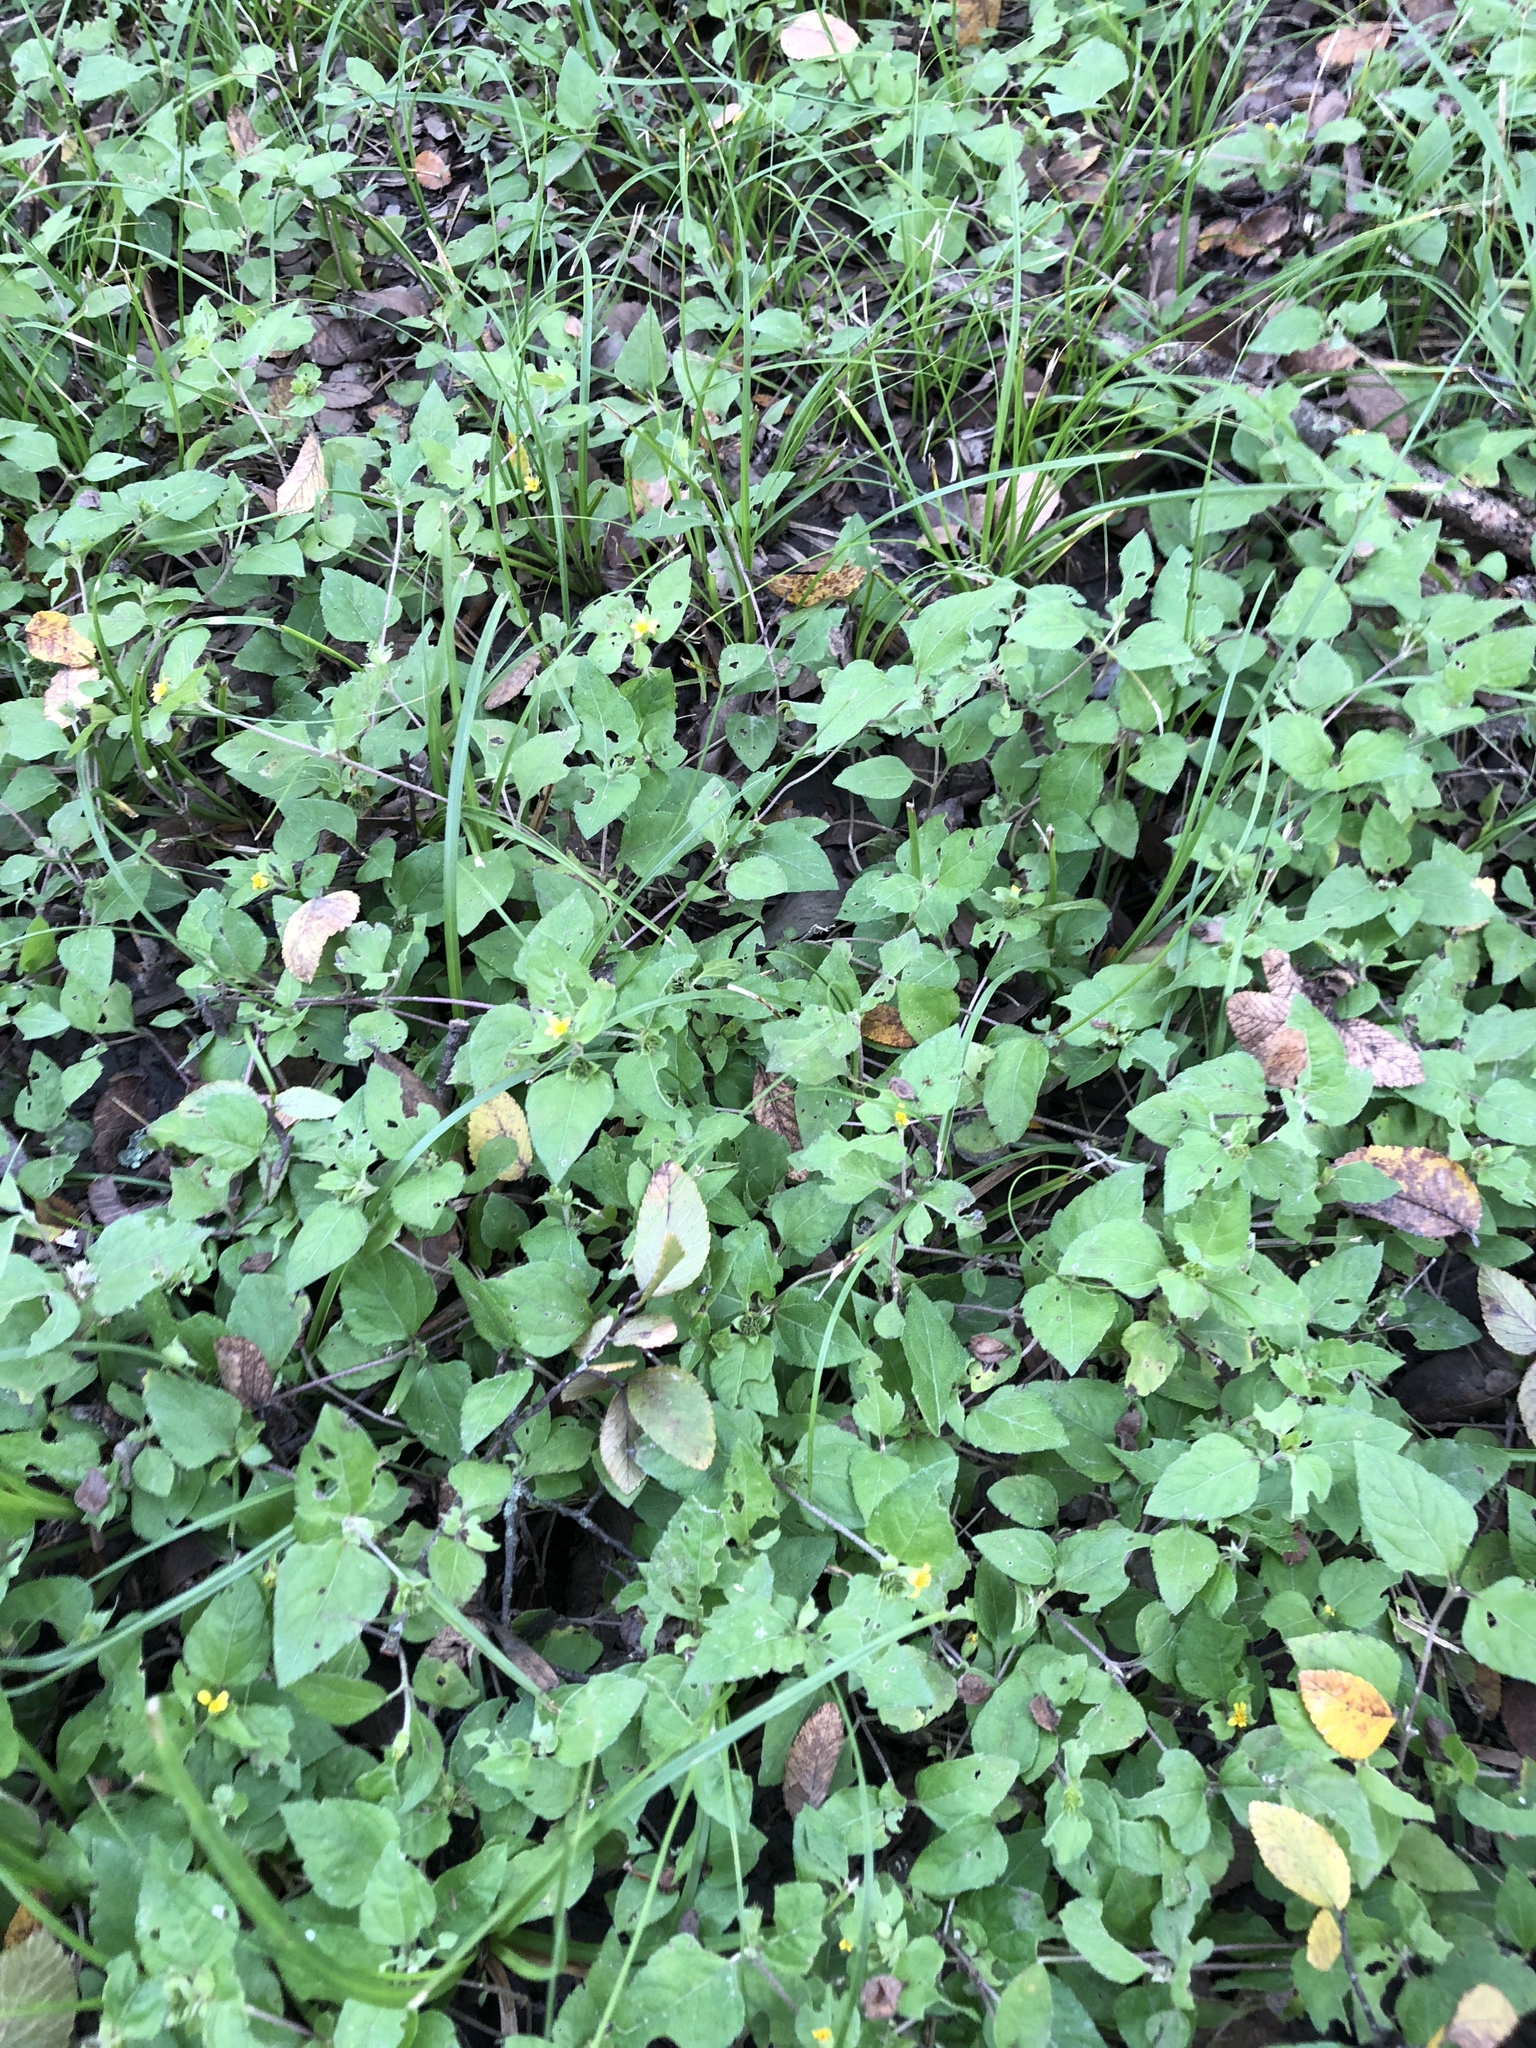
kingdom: Plantae
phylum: Tracheophyta
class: Magnoliopsida
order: Asterales
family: Asteraceae
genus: Calyptocarpus
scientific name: Calyptocarpus vialis
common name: Straggler daisy
